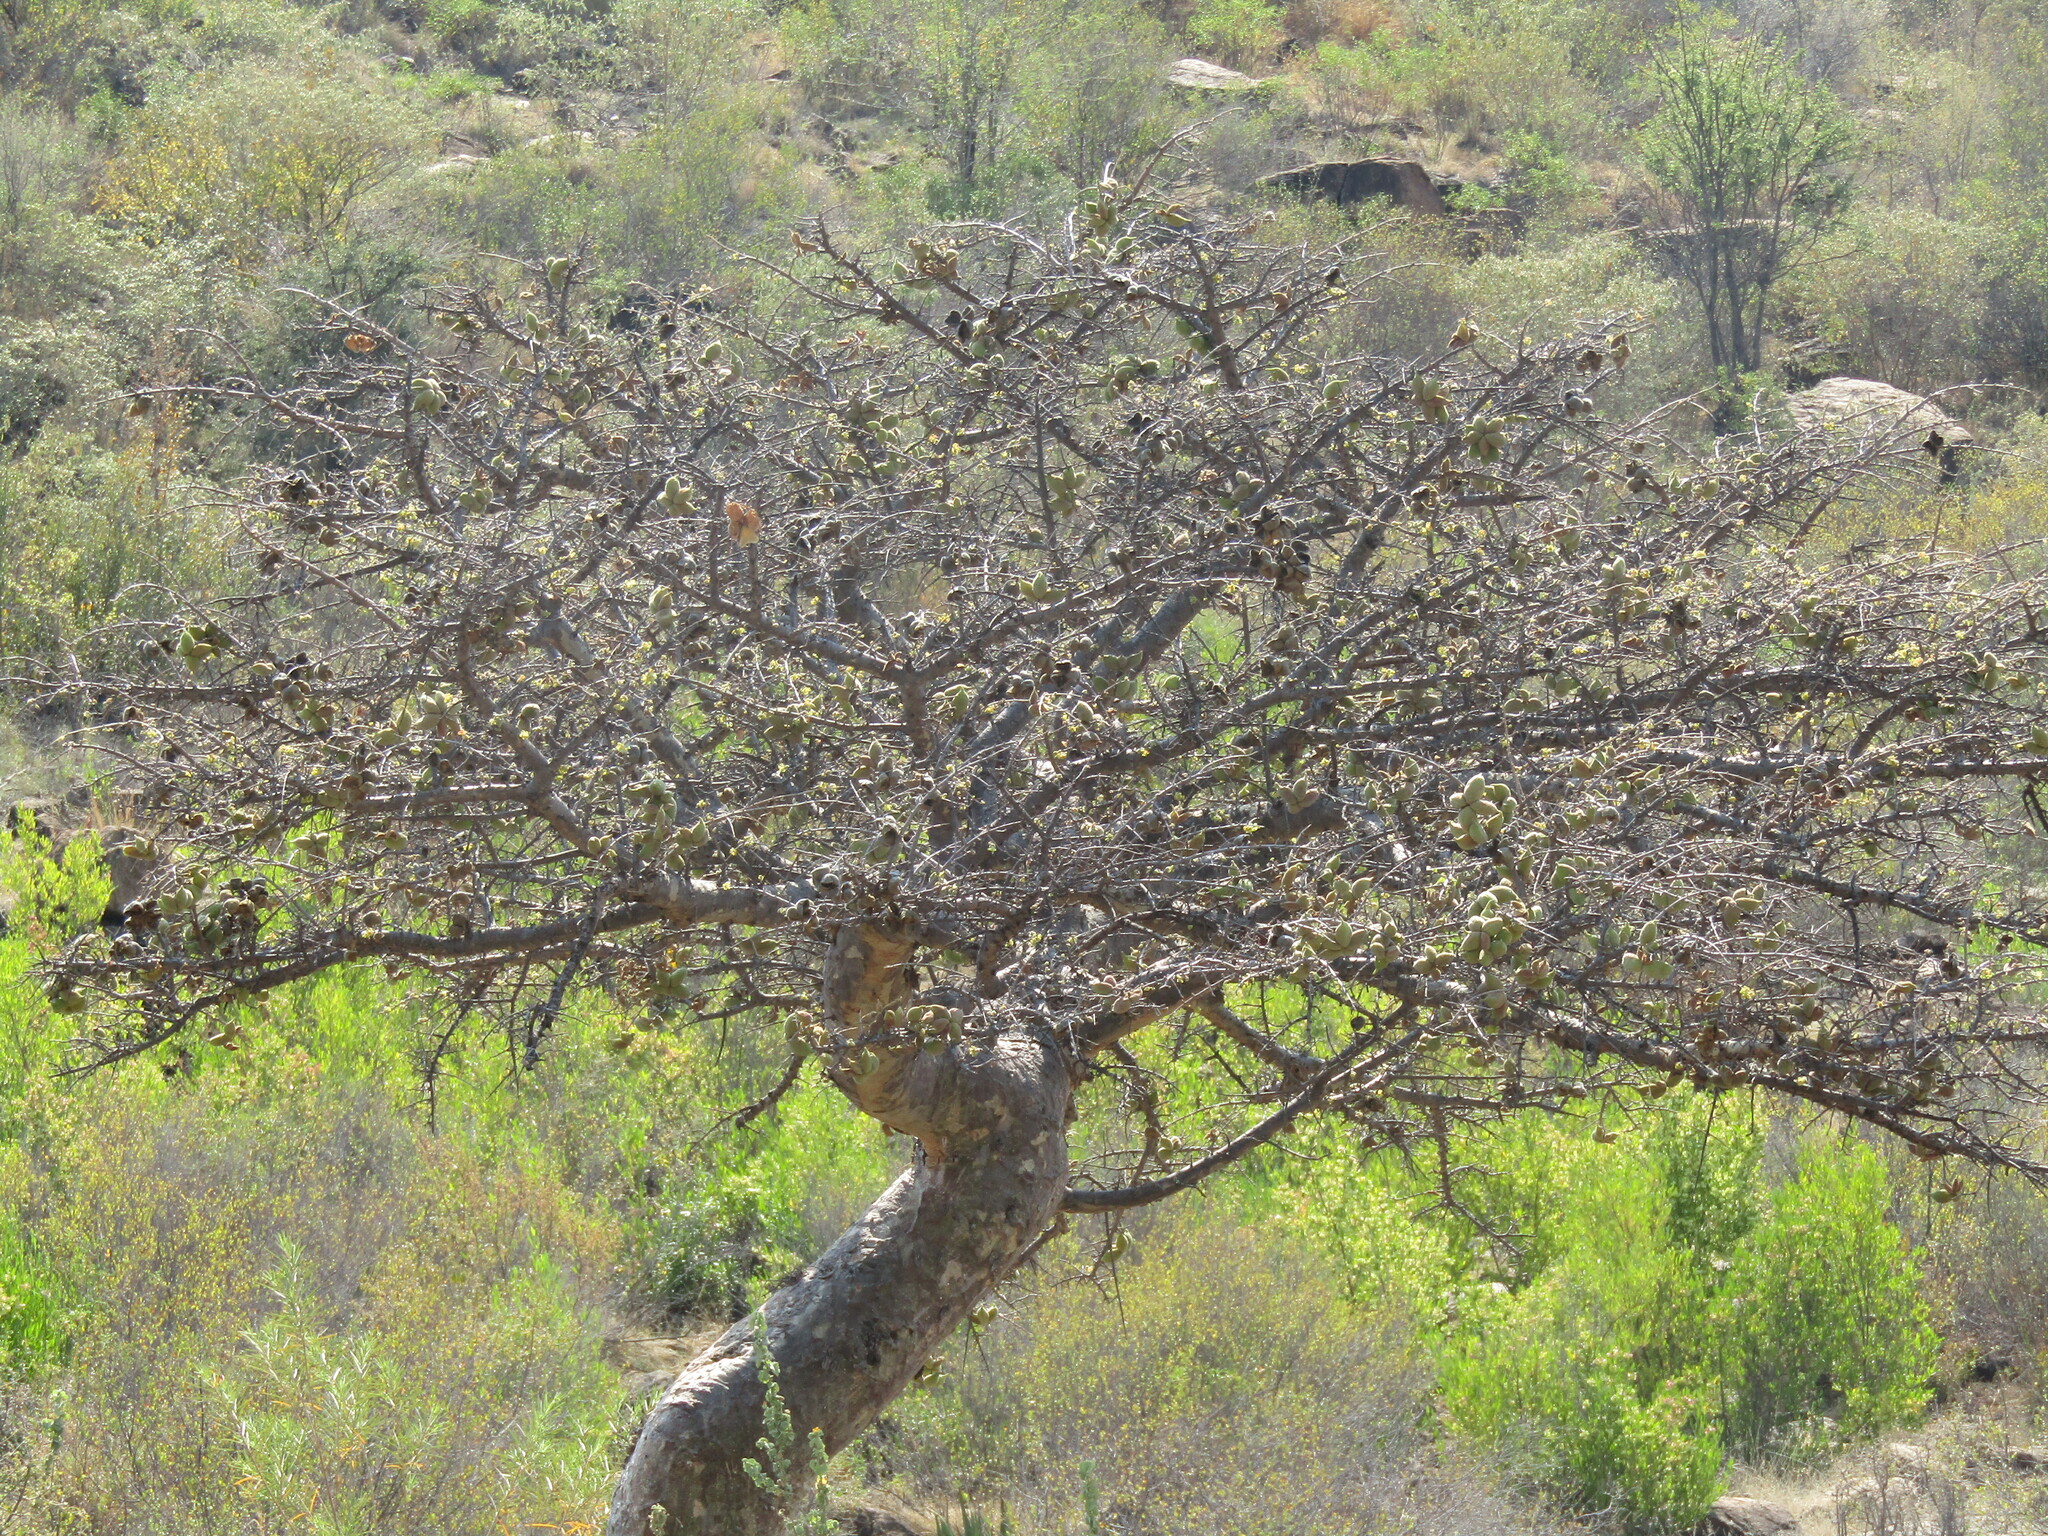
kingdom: Plantae
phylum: Tracheophyta
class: Magnoliopsida
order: Malvales
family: Malvaceae
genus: Sterculia
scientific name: Sterculia rogersii
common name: Star-chestnut
